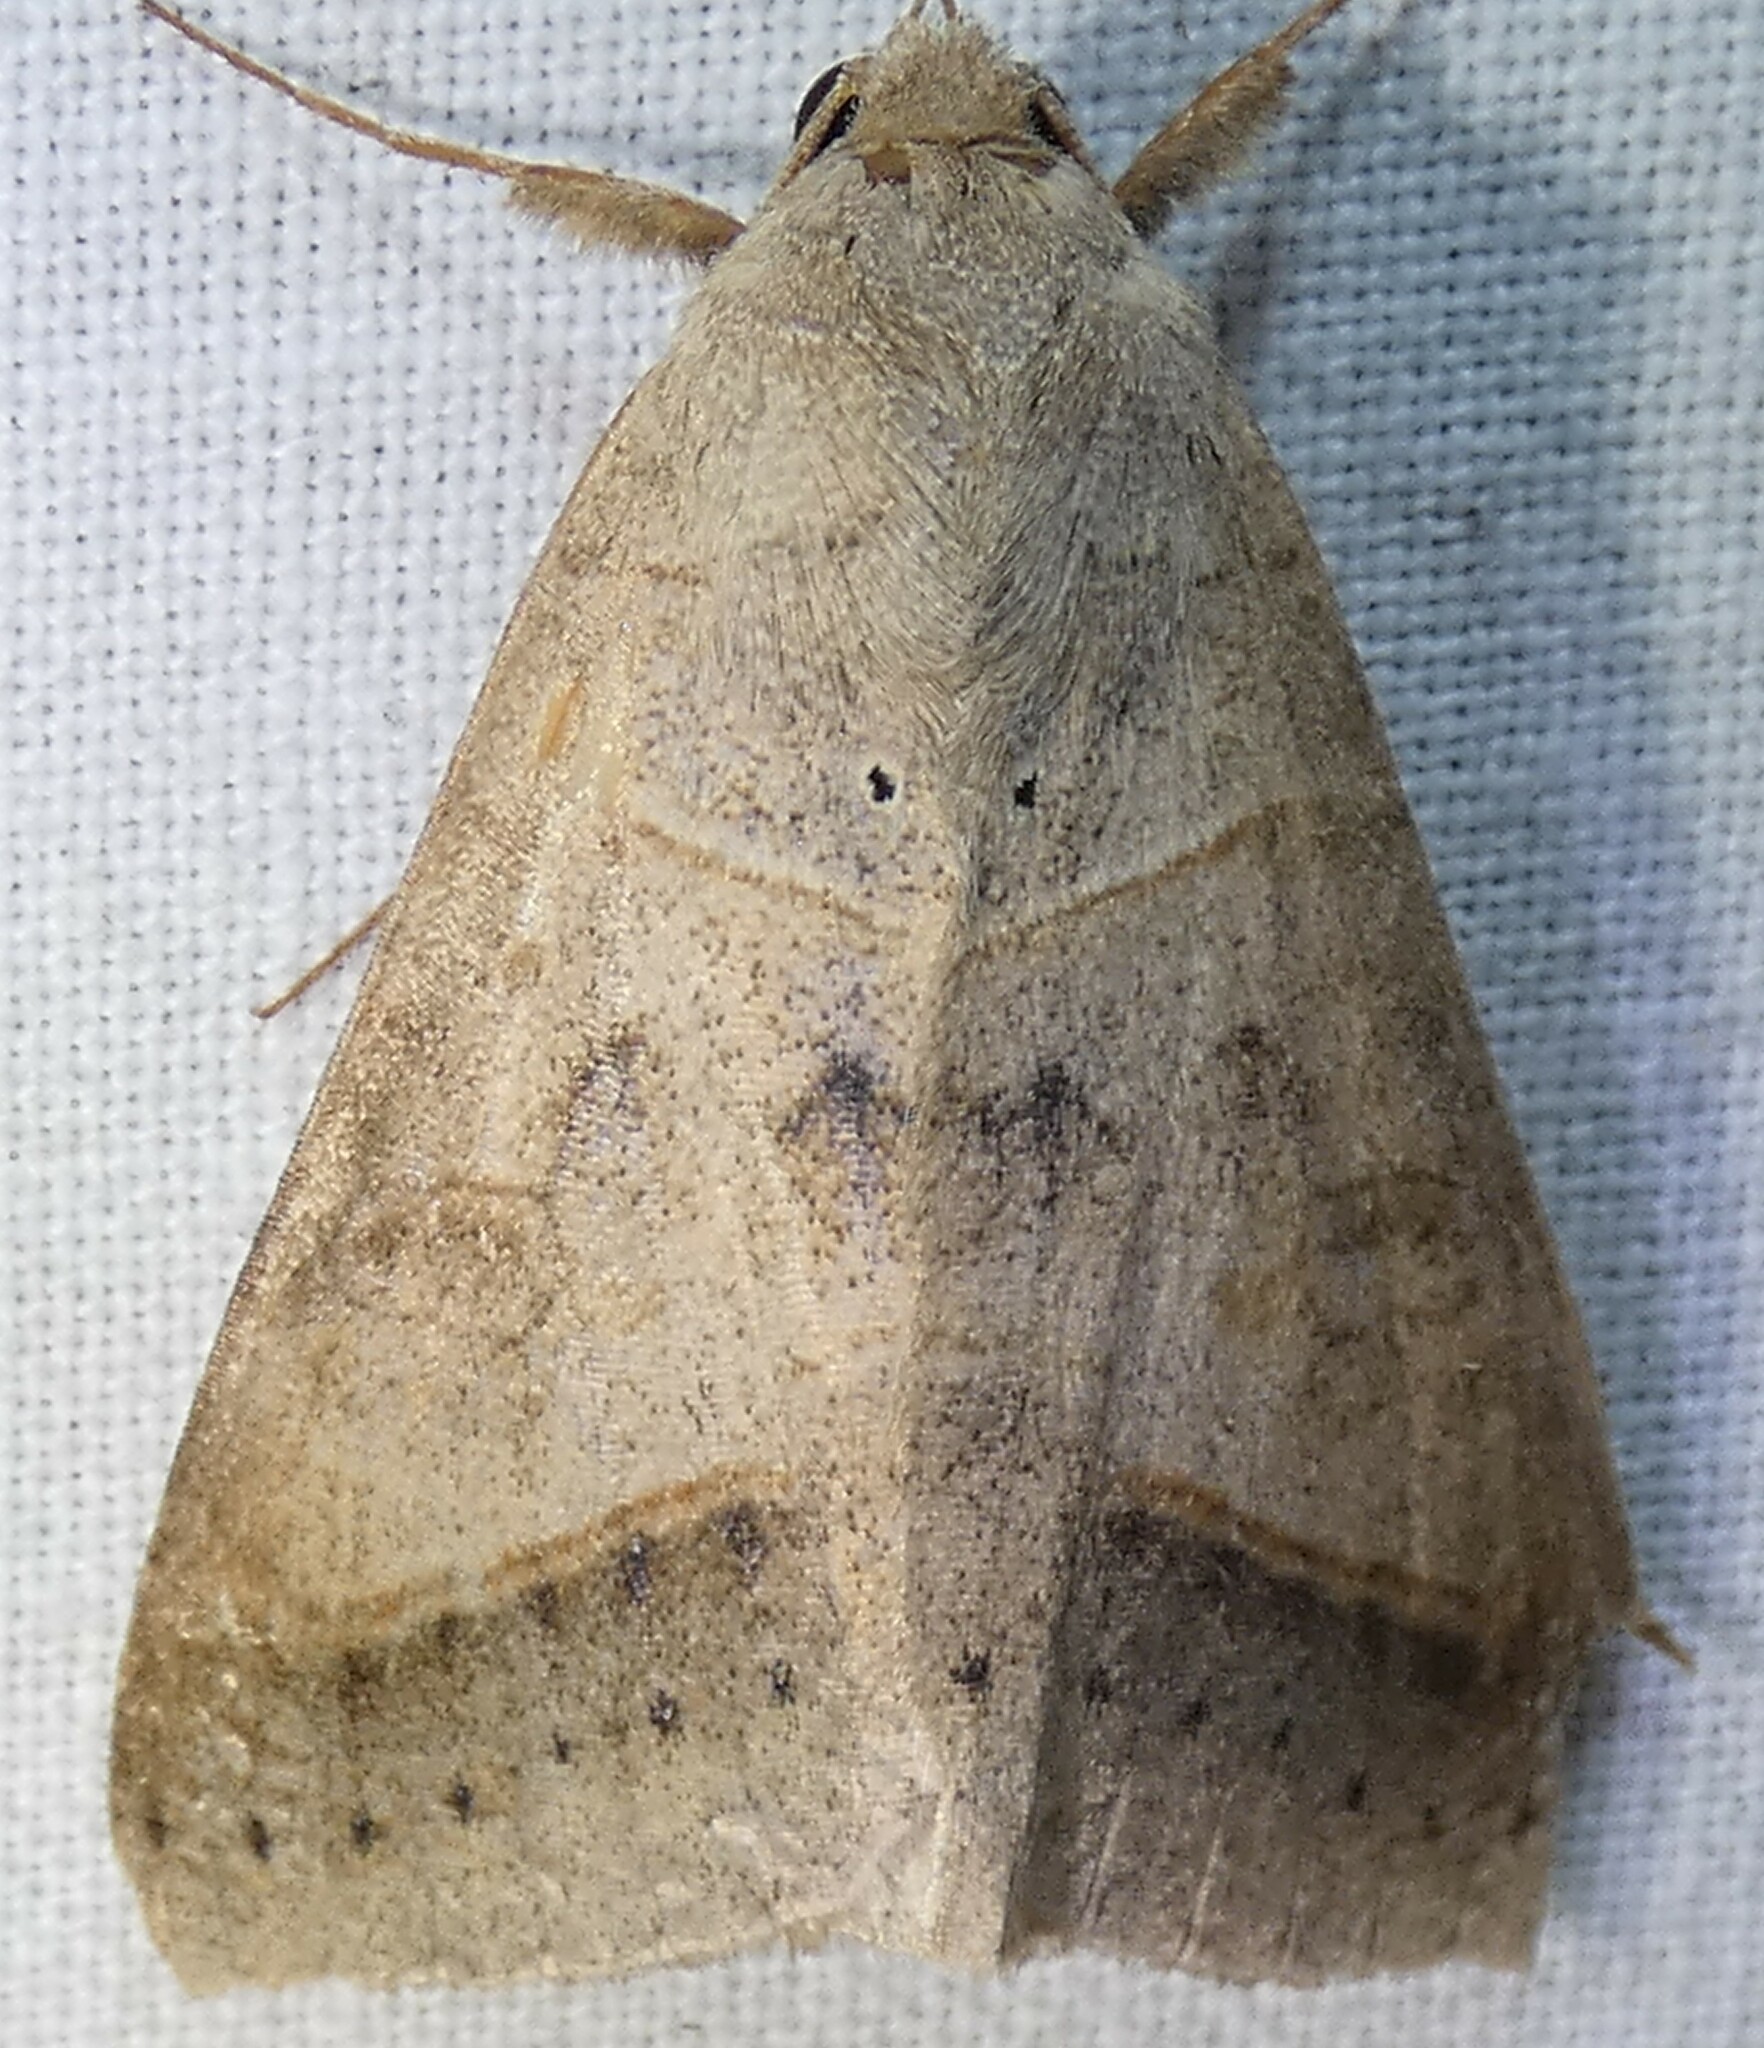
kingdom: Animalia
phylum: Arthropoda
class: Insecta
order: Lepidoptera
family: Erebidae
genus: Mocis
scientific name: Mocis marcida
